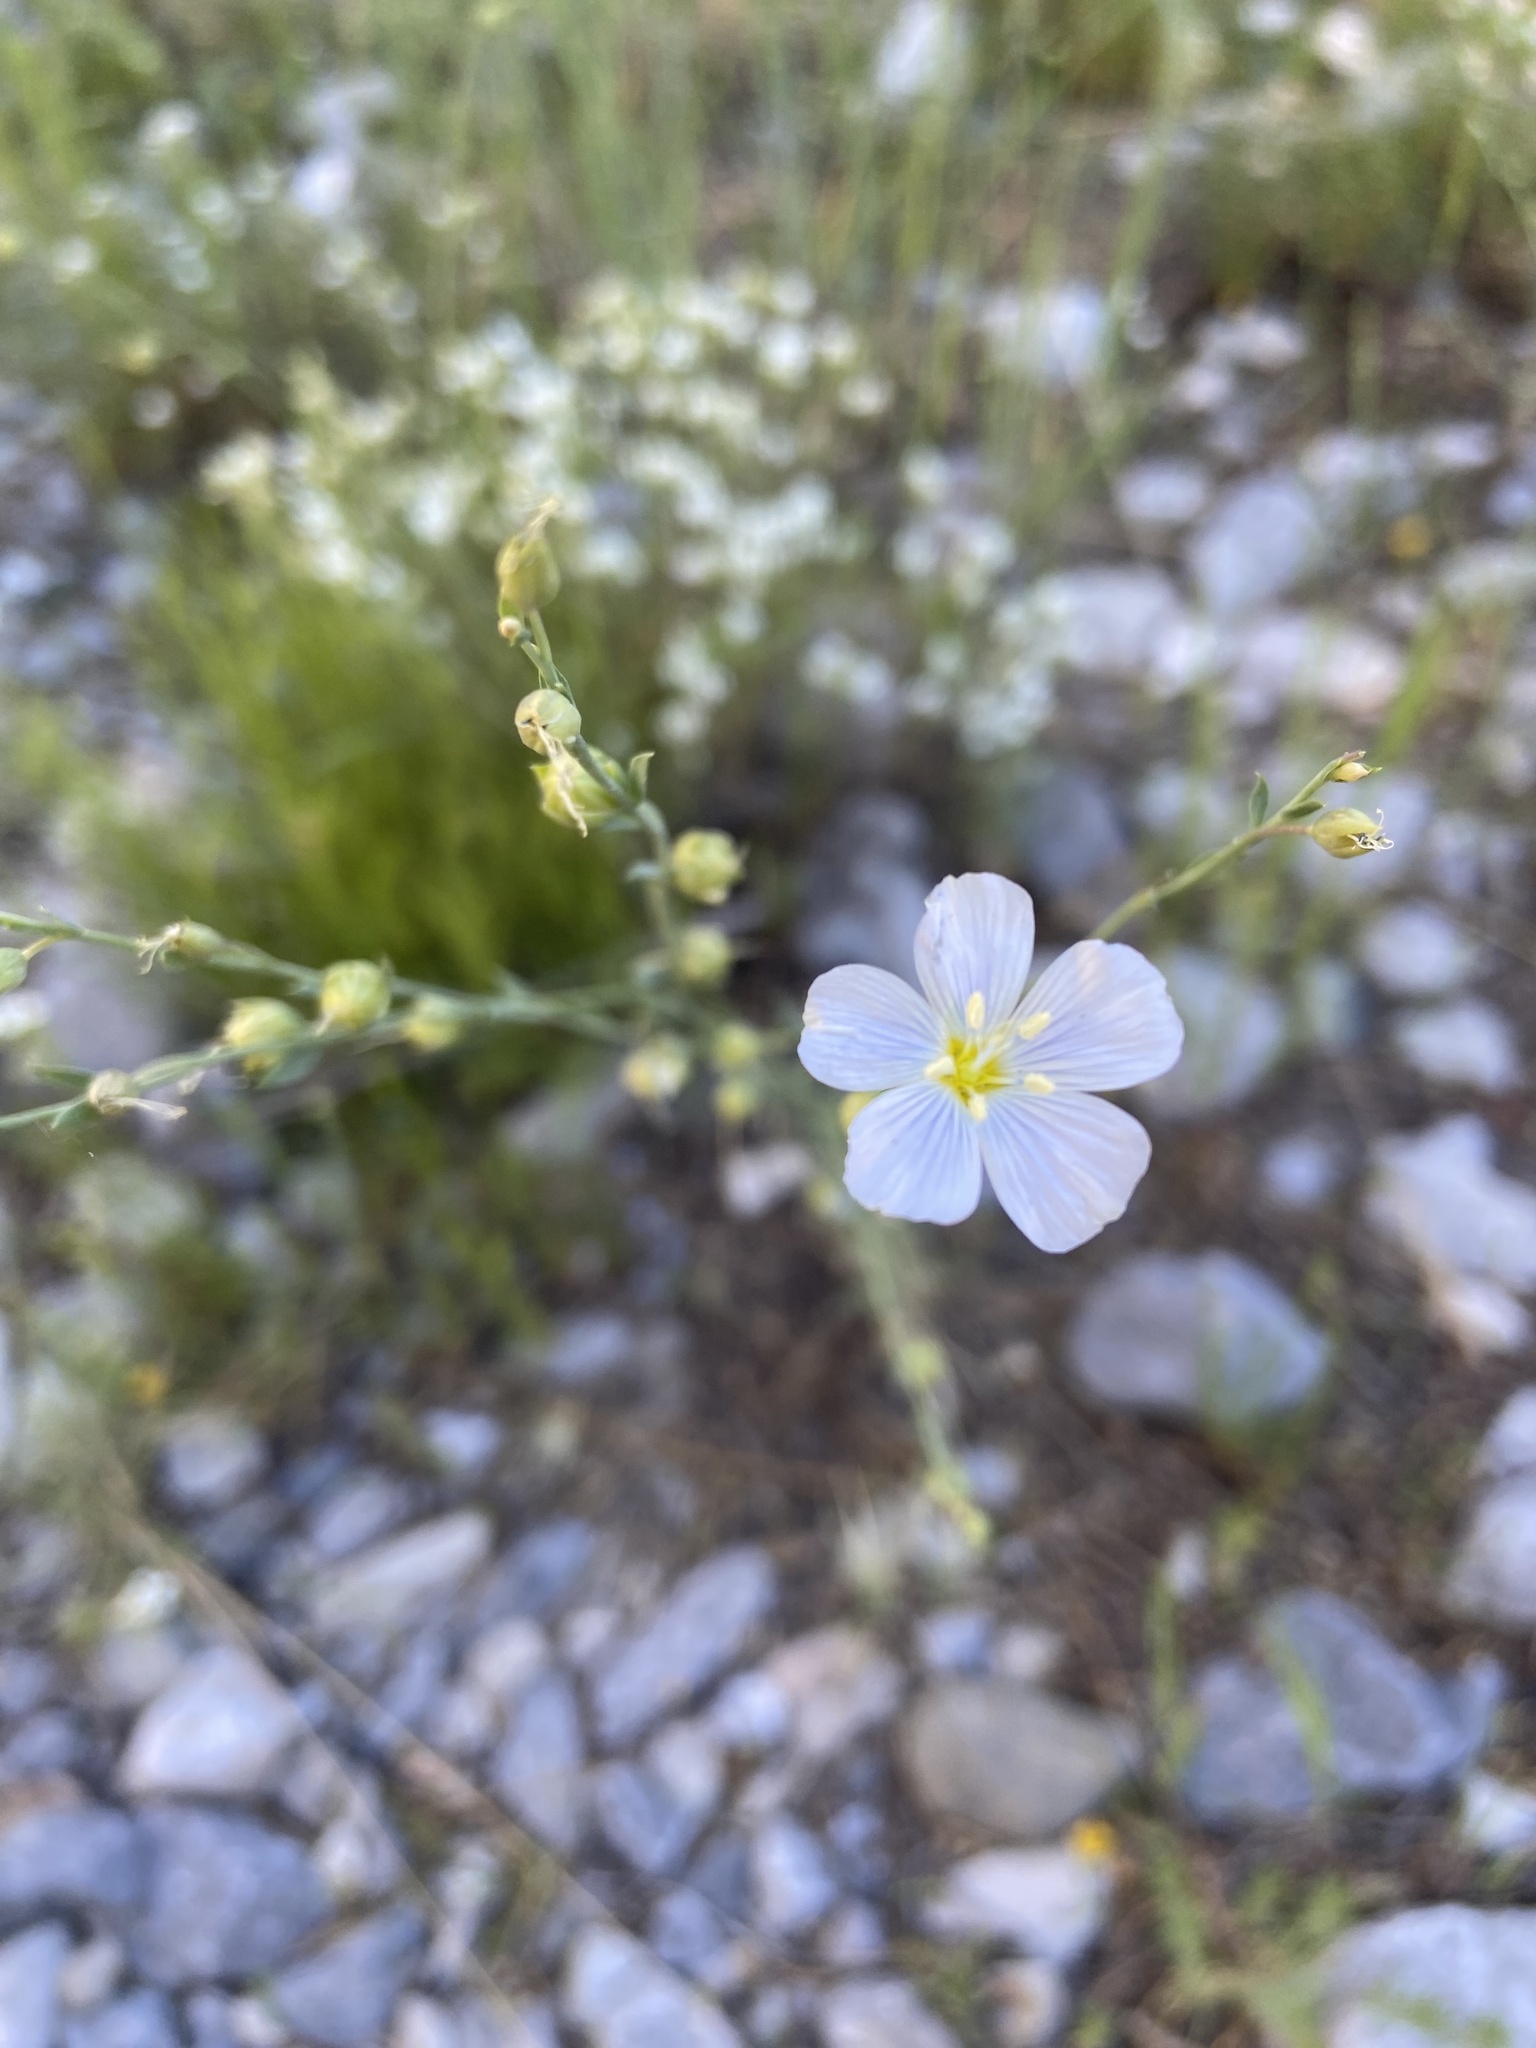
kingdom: Plantae
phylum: Tracheophyta
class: Magnoliopsida
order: Malpighiales
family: Linaceae
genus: Linum
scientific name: Linum lewisii
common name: Prairie flax
